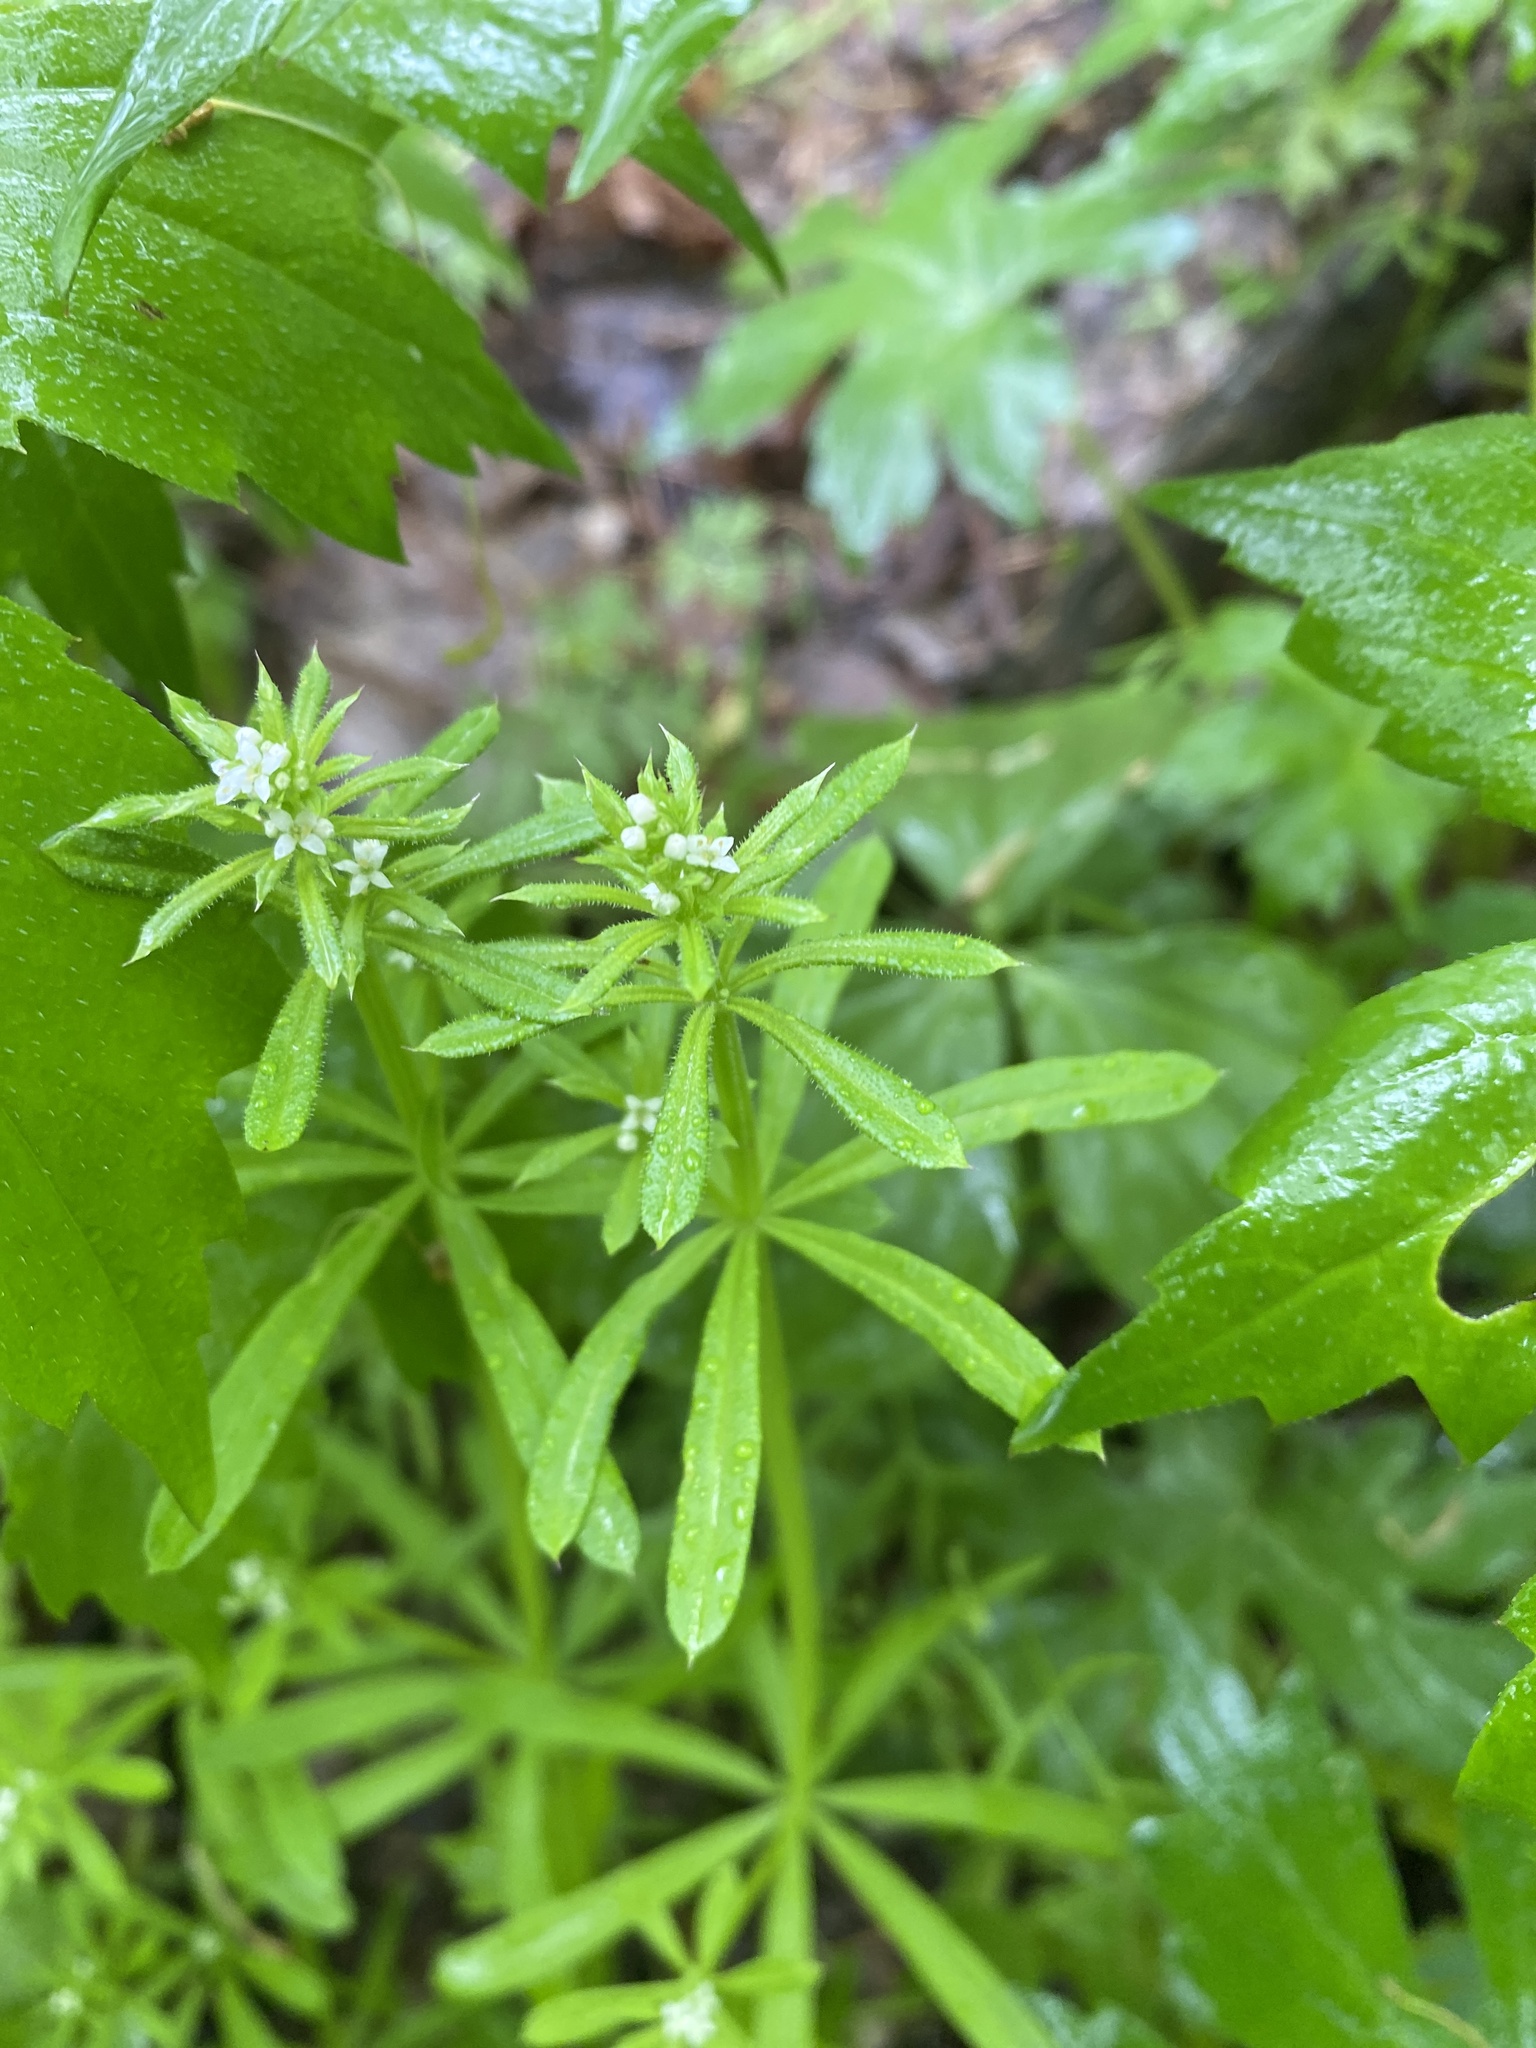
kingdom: Plantae
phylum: Tracheophyta
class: Magnoliopsida
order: Gentianales
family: Rubiaceae
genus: Galium
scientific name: Galium aparine
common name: Cleavers
